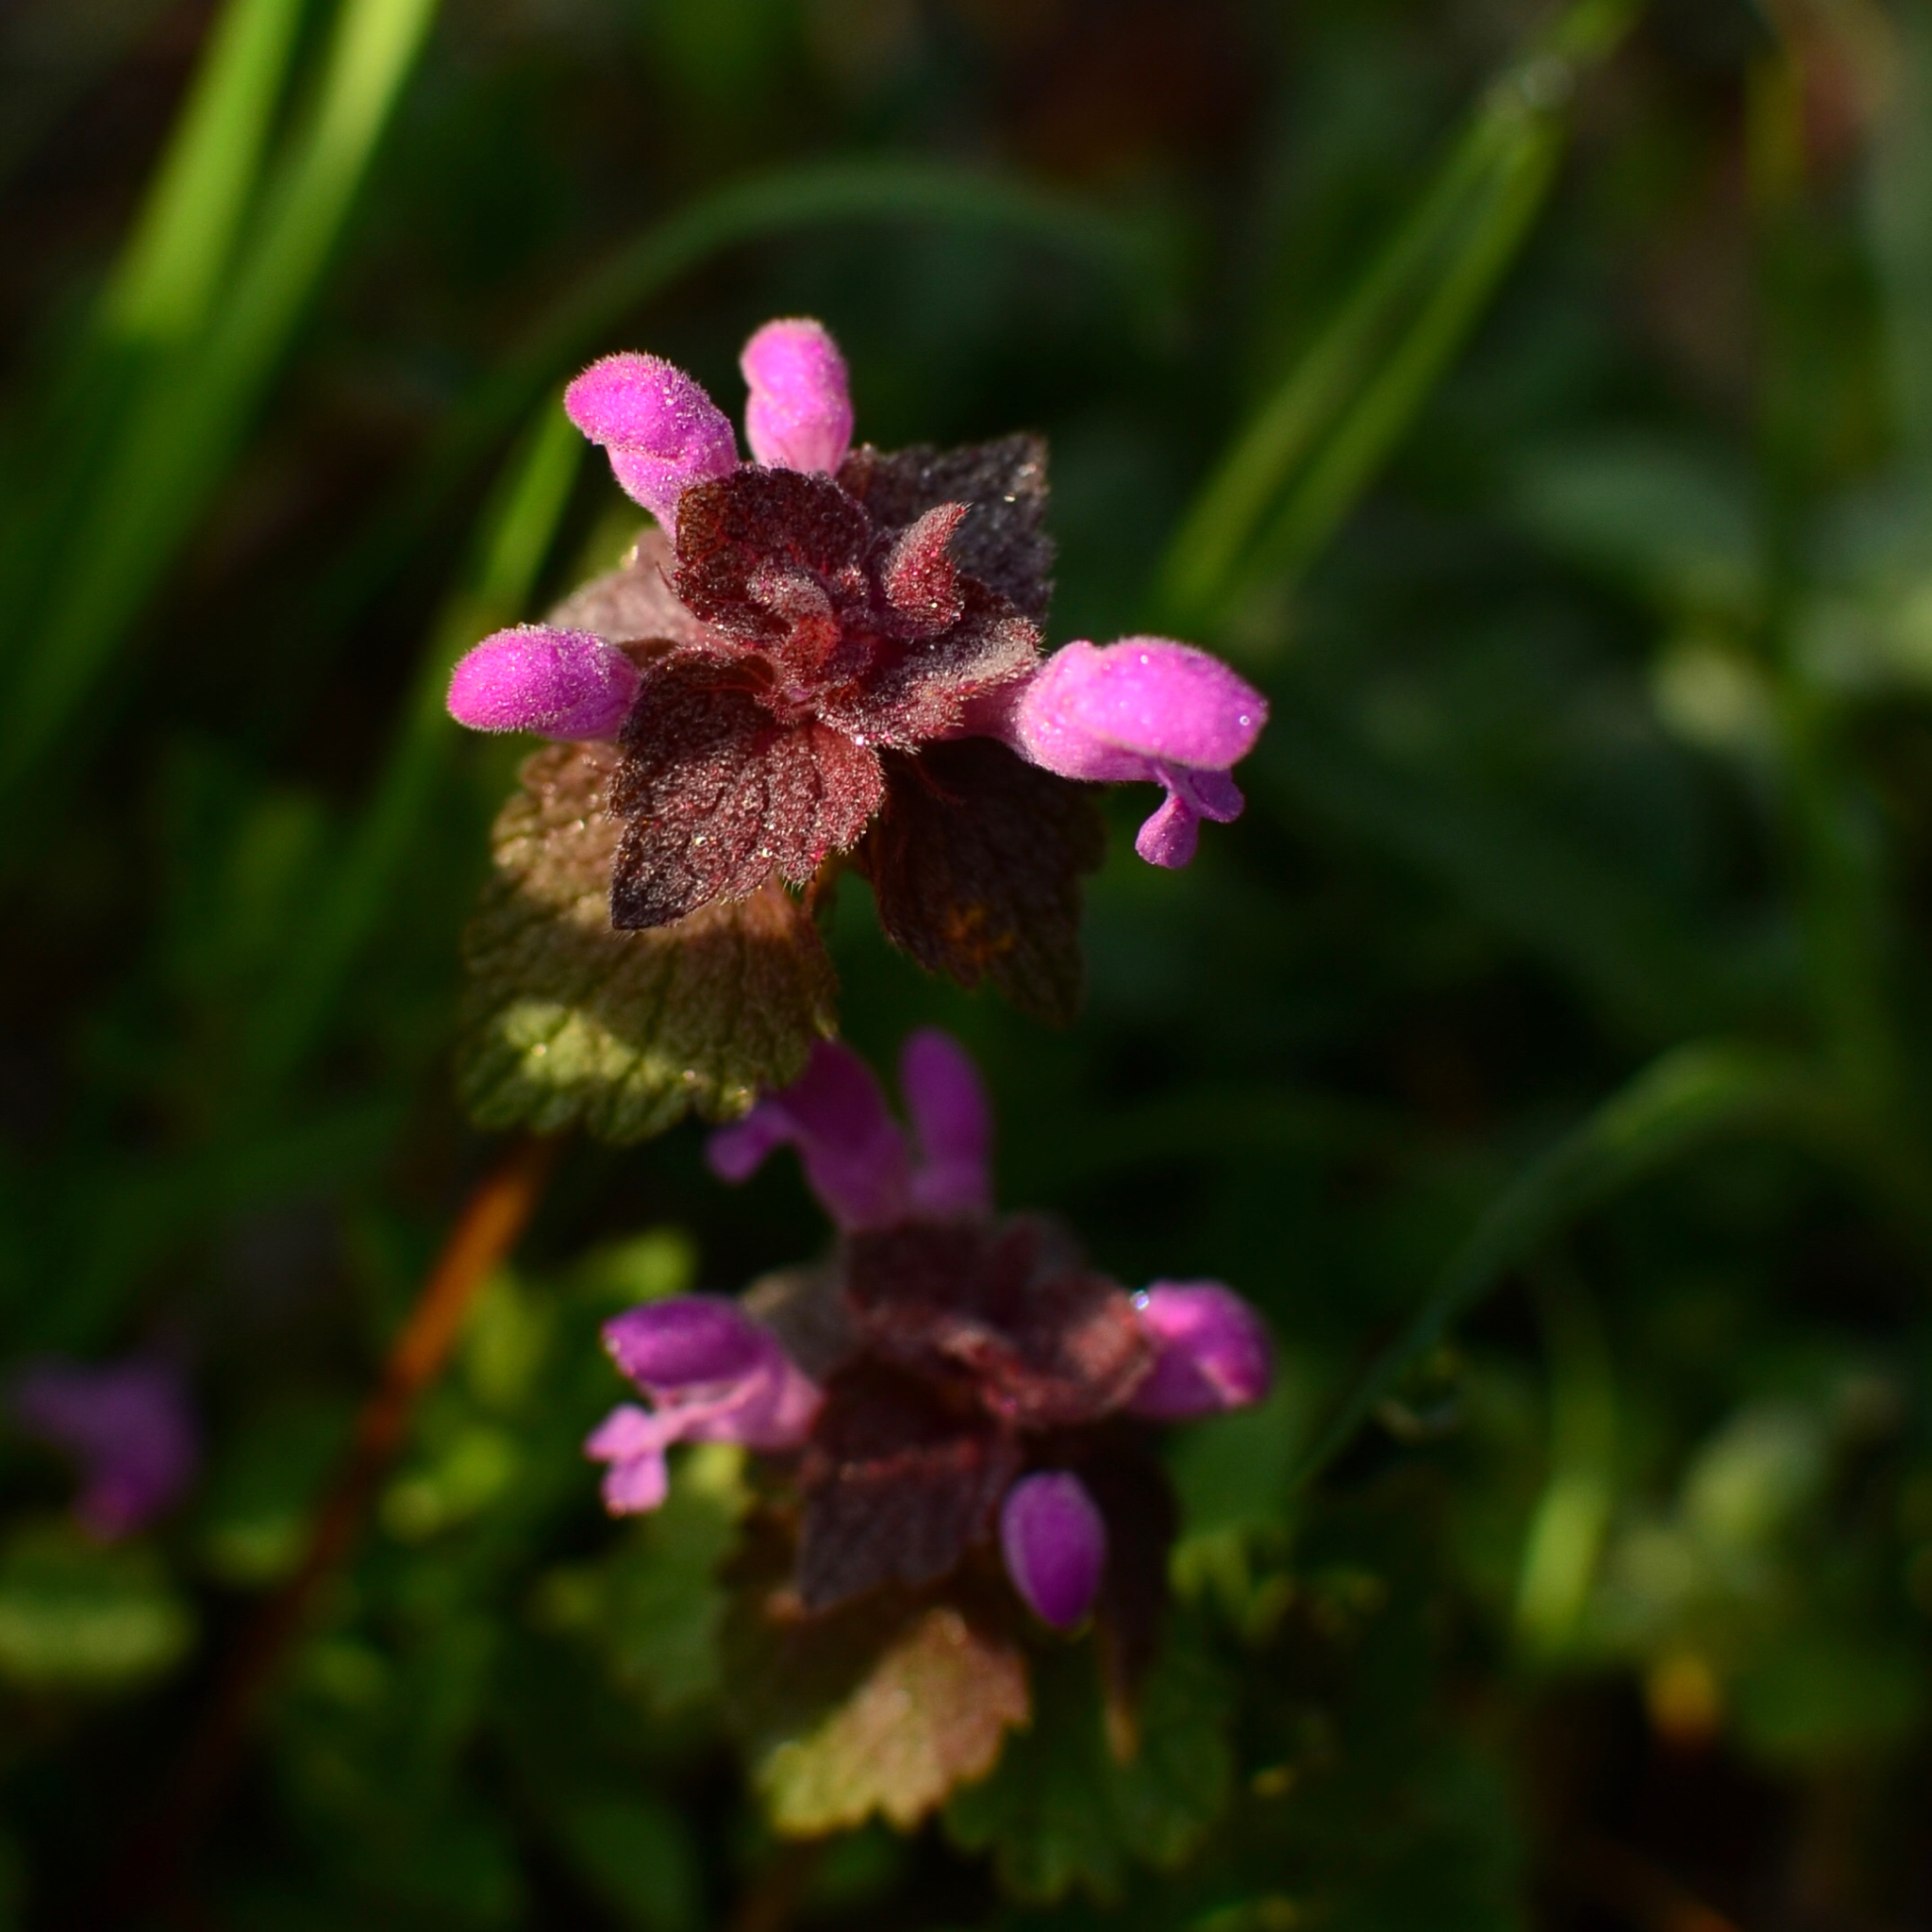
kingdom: Plantae
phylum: Tracheophyta
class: Magnoliopsida
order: Lamiales
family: Lamiaceae
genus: Lamium
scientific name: Lamium purpureum
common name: Red dead-nettle
